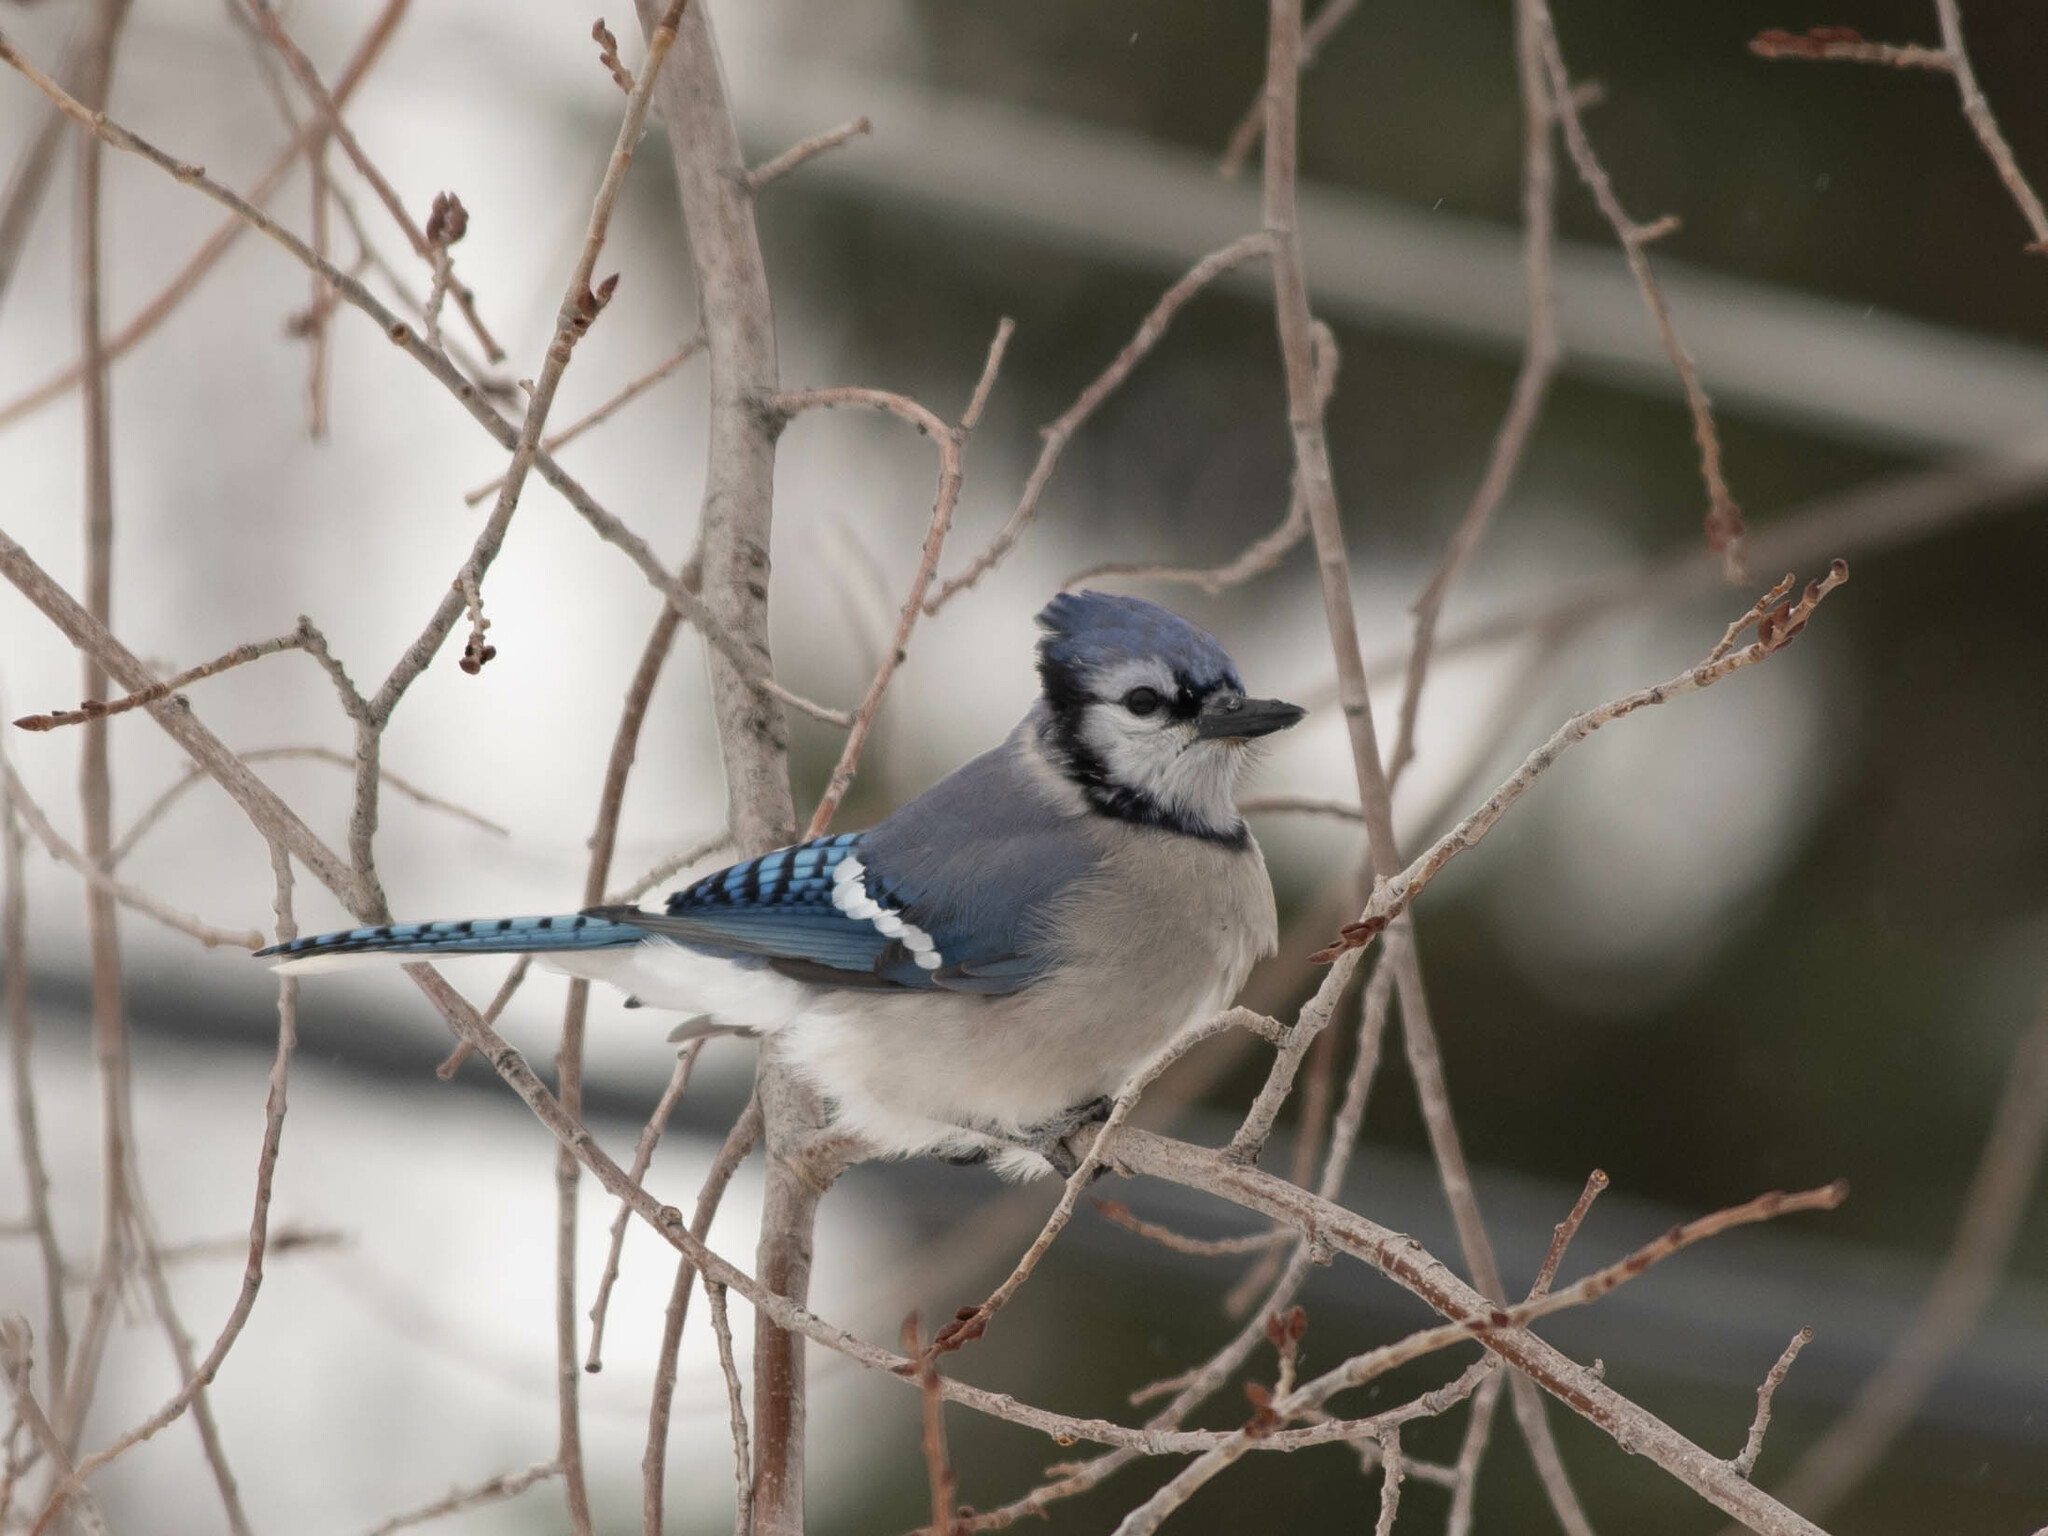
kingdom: Animalia
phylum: Chordata
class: Aves
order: Passeriformes
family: Corvidae
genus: Cyanocitta
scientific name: Cyanocitta cristata
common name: Blue jay
